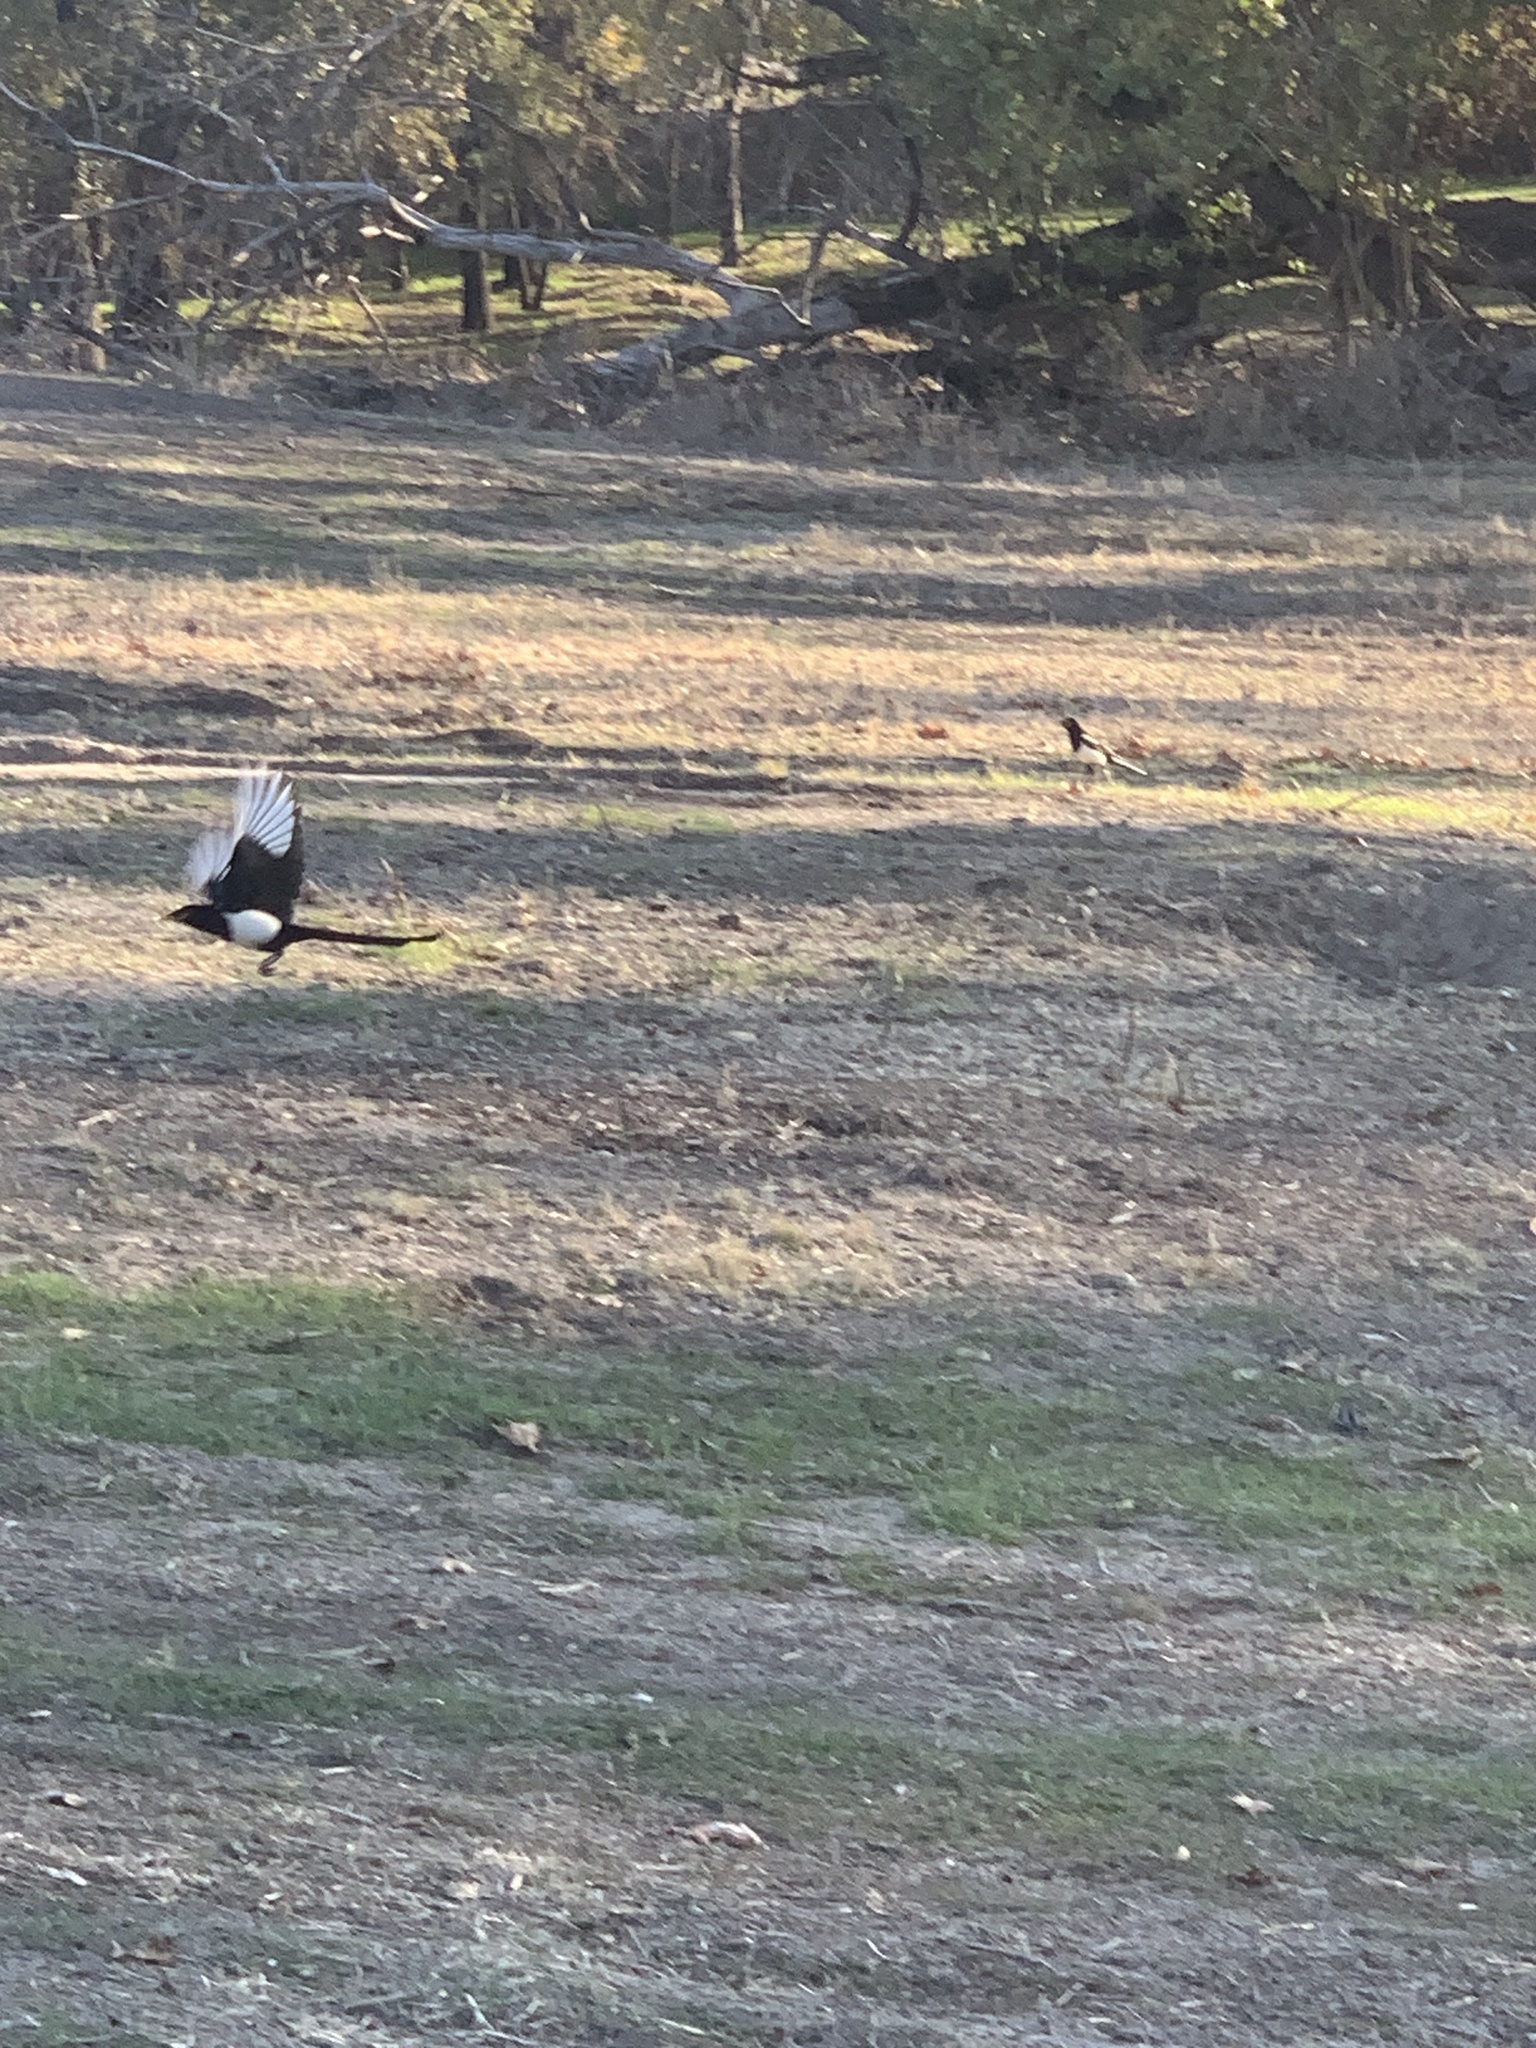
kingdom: Animalia
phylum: Chordata
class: Aves
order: Passeriformes
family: Corvidae
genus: Pica
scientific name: Pica nuttalli
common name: Yellow-billed magpie
